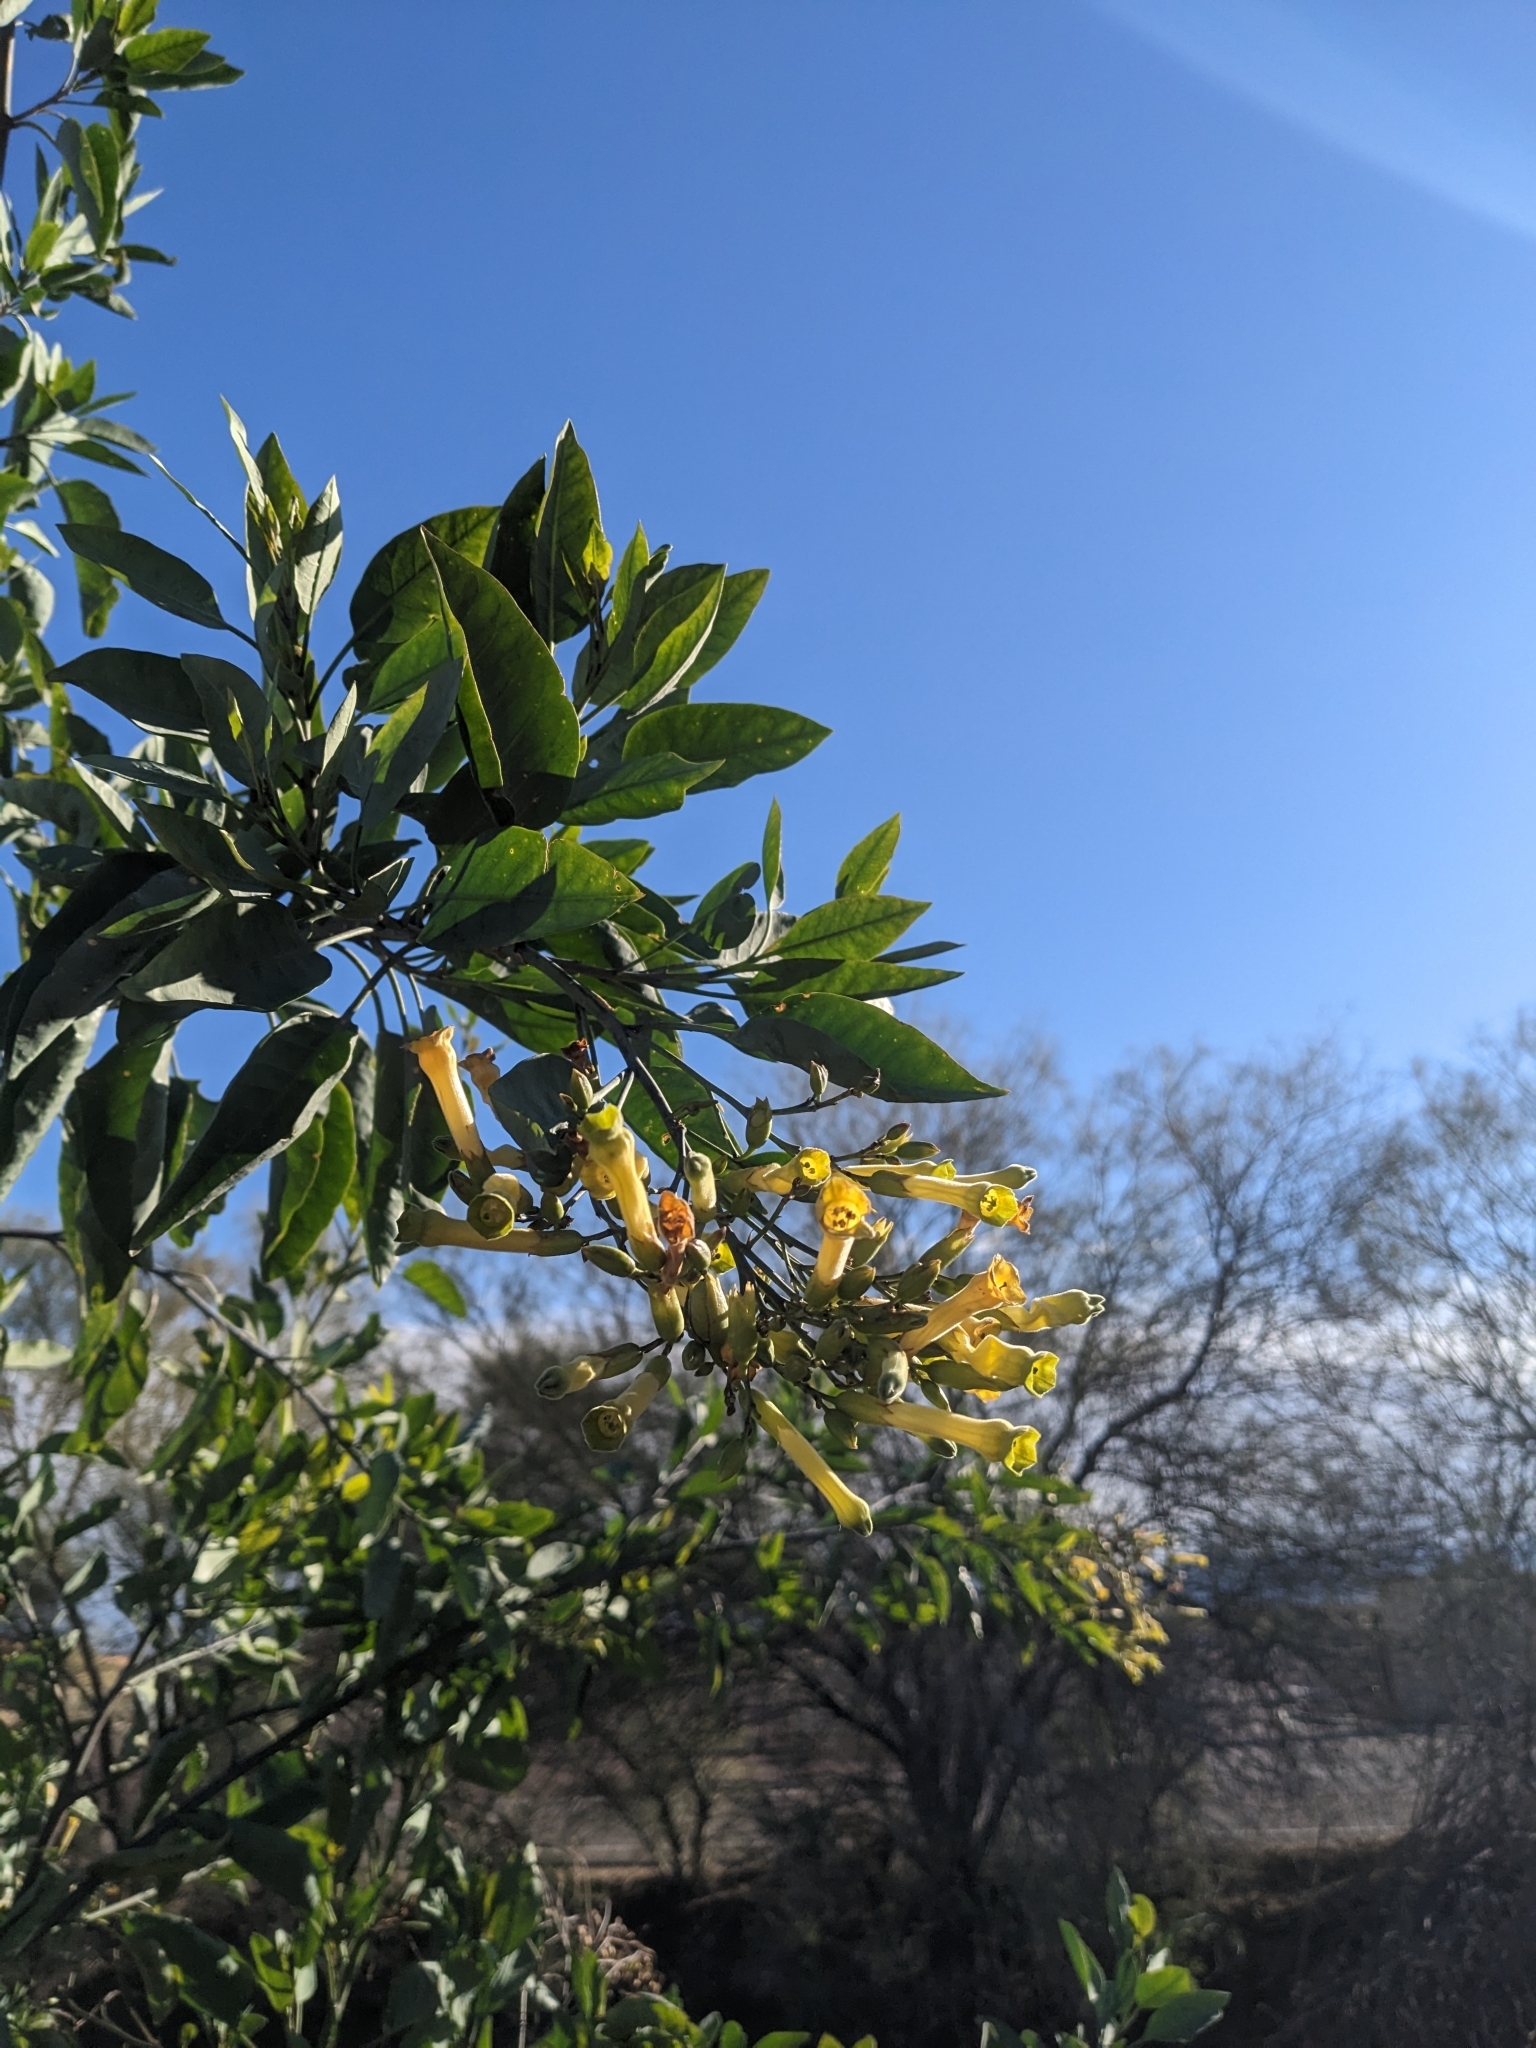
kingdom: Plantae
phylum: Tracheophyta
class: Magnoliopsida
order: Solanales
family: Solanaceae
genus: Nicotiana
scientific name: Nicotiana glauca
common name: Tree tobacco
